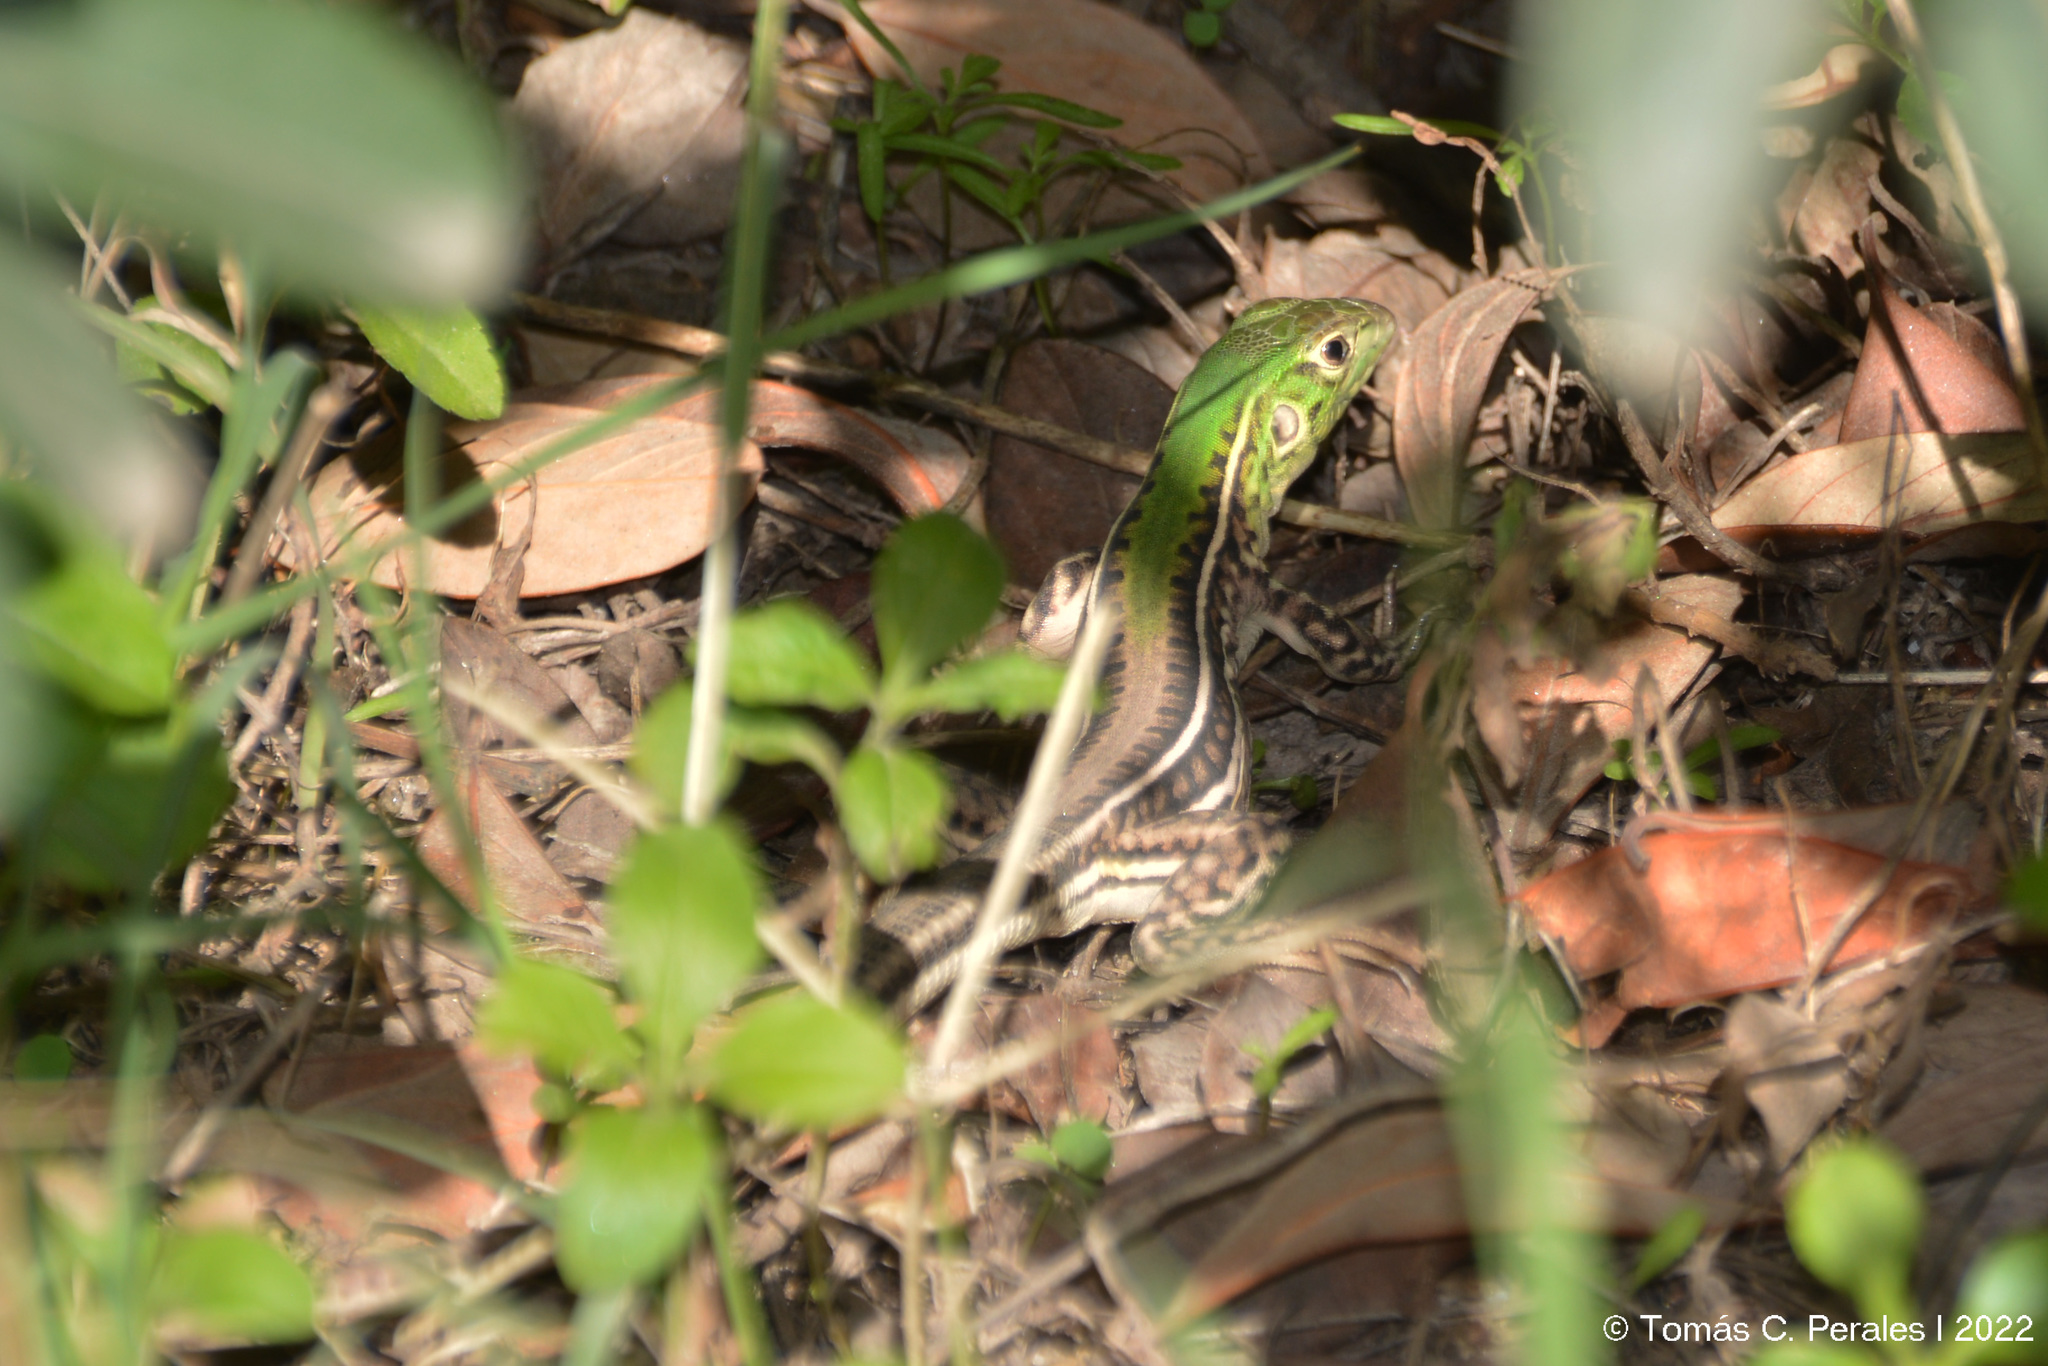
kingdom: Animalia
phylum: Chordata
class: Squamata
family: Teiidae
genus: Teius
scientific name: Teius suquiensis
